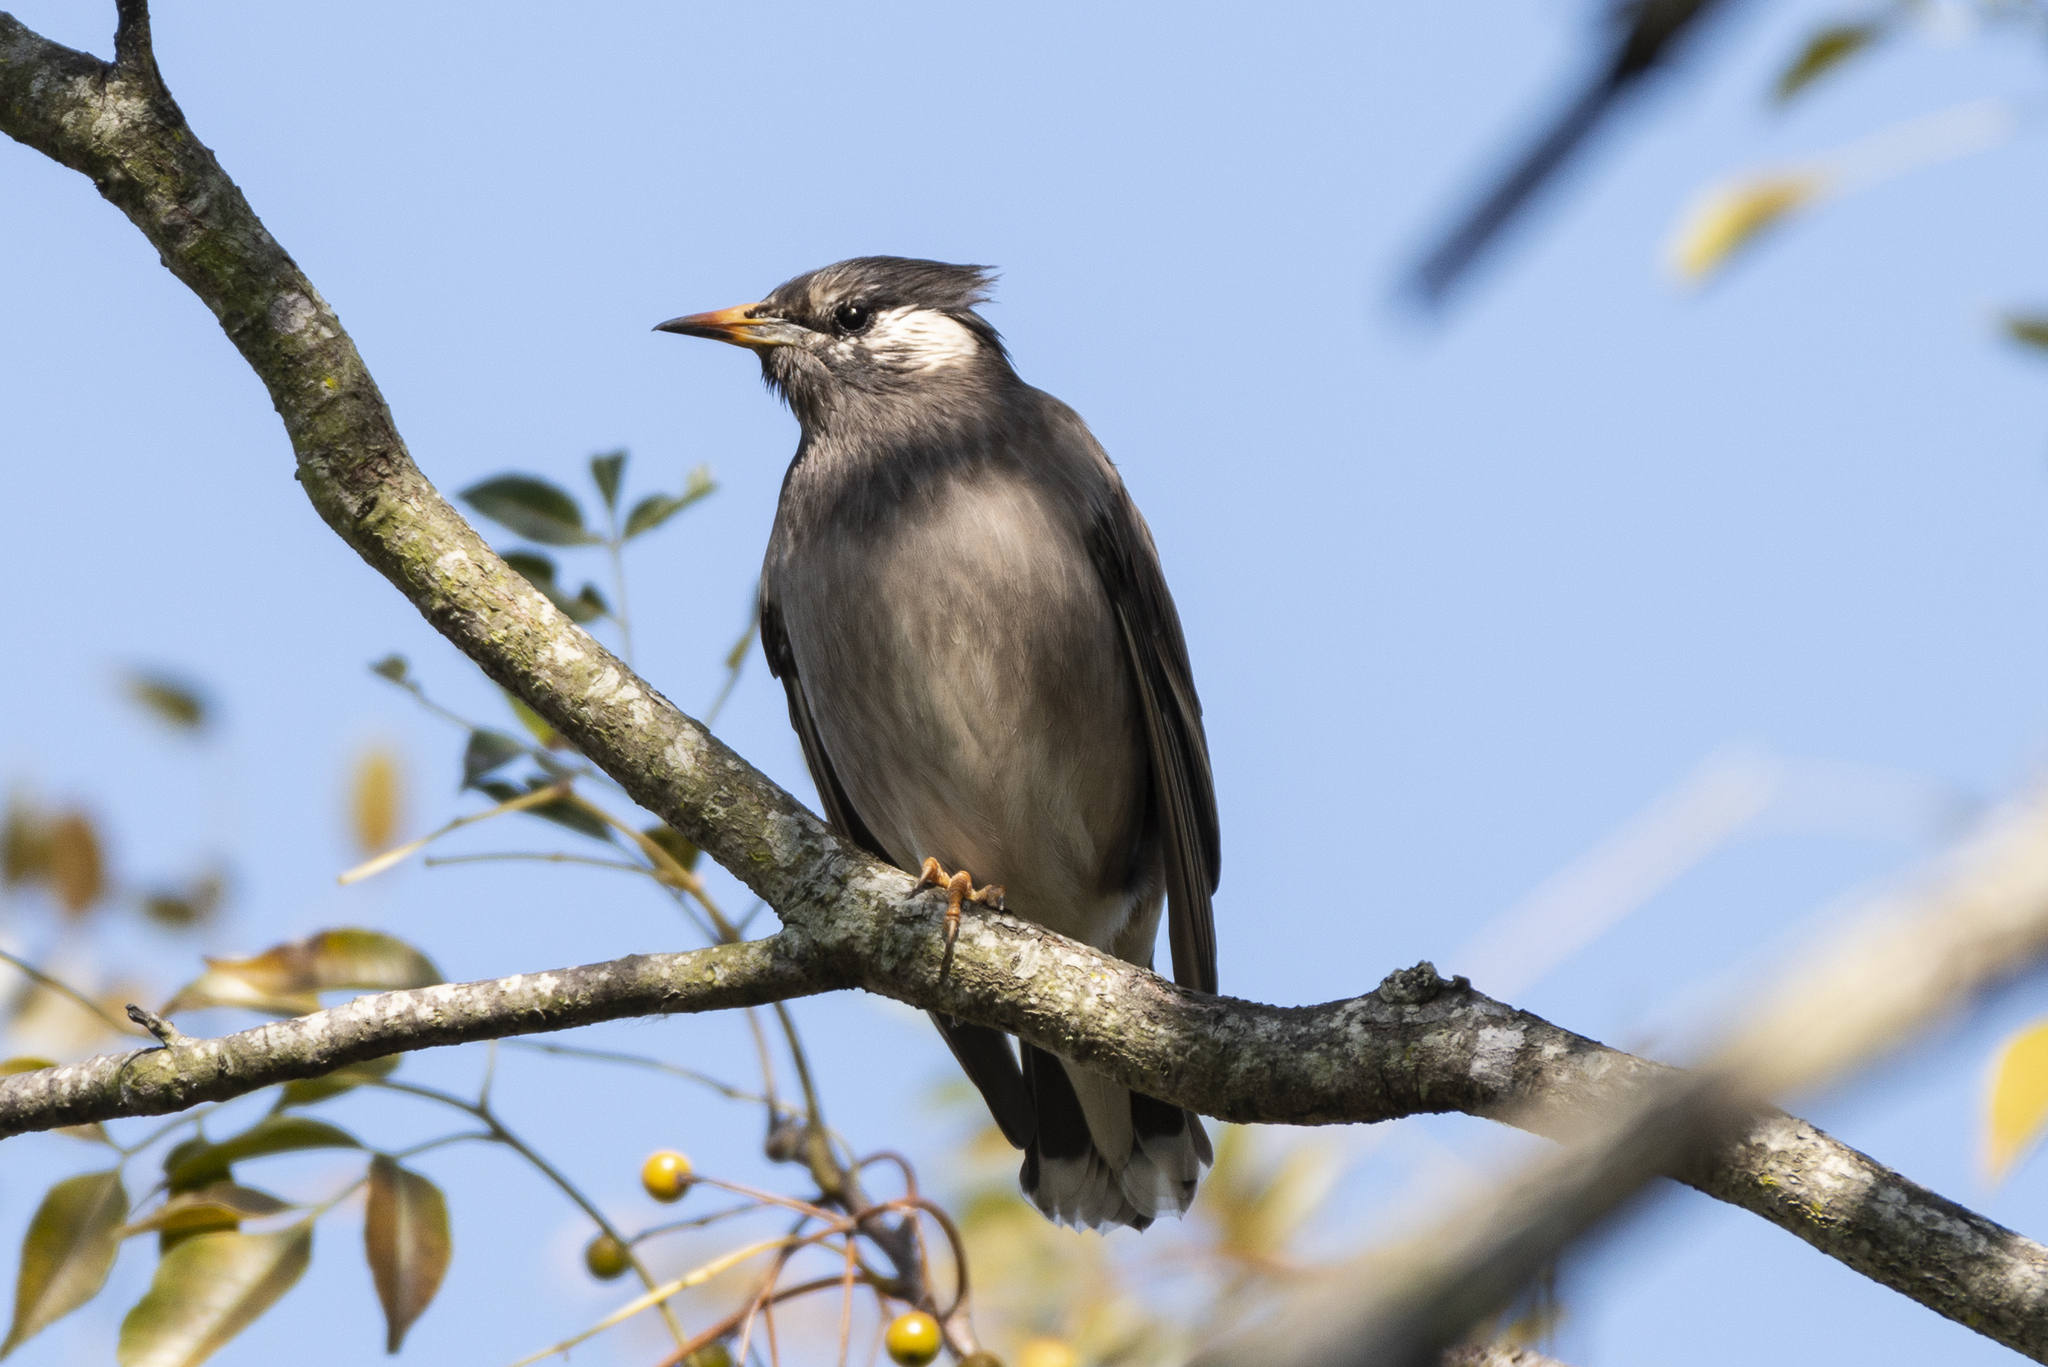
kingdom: Animalia
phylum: Chordata
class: Aves
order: Passeriformes
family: Sturnidae
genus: Spodiopsar
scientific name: Spodiopsar cineraceus
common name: White-cheeked starling
